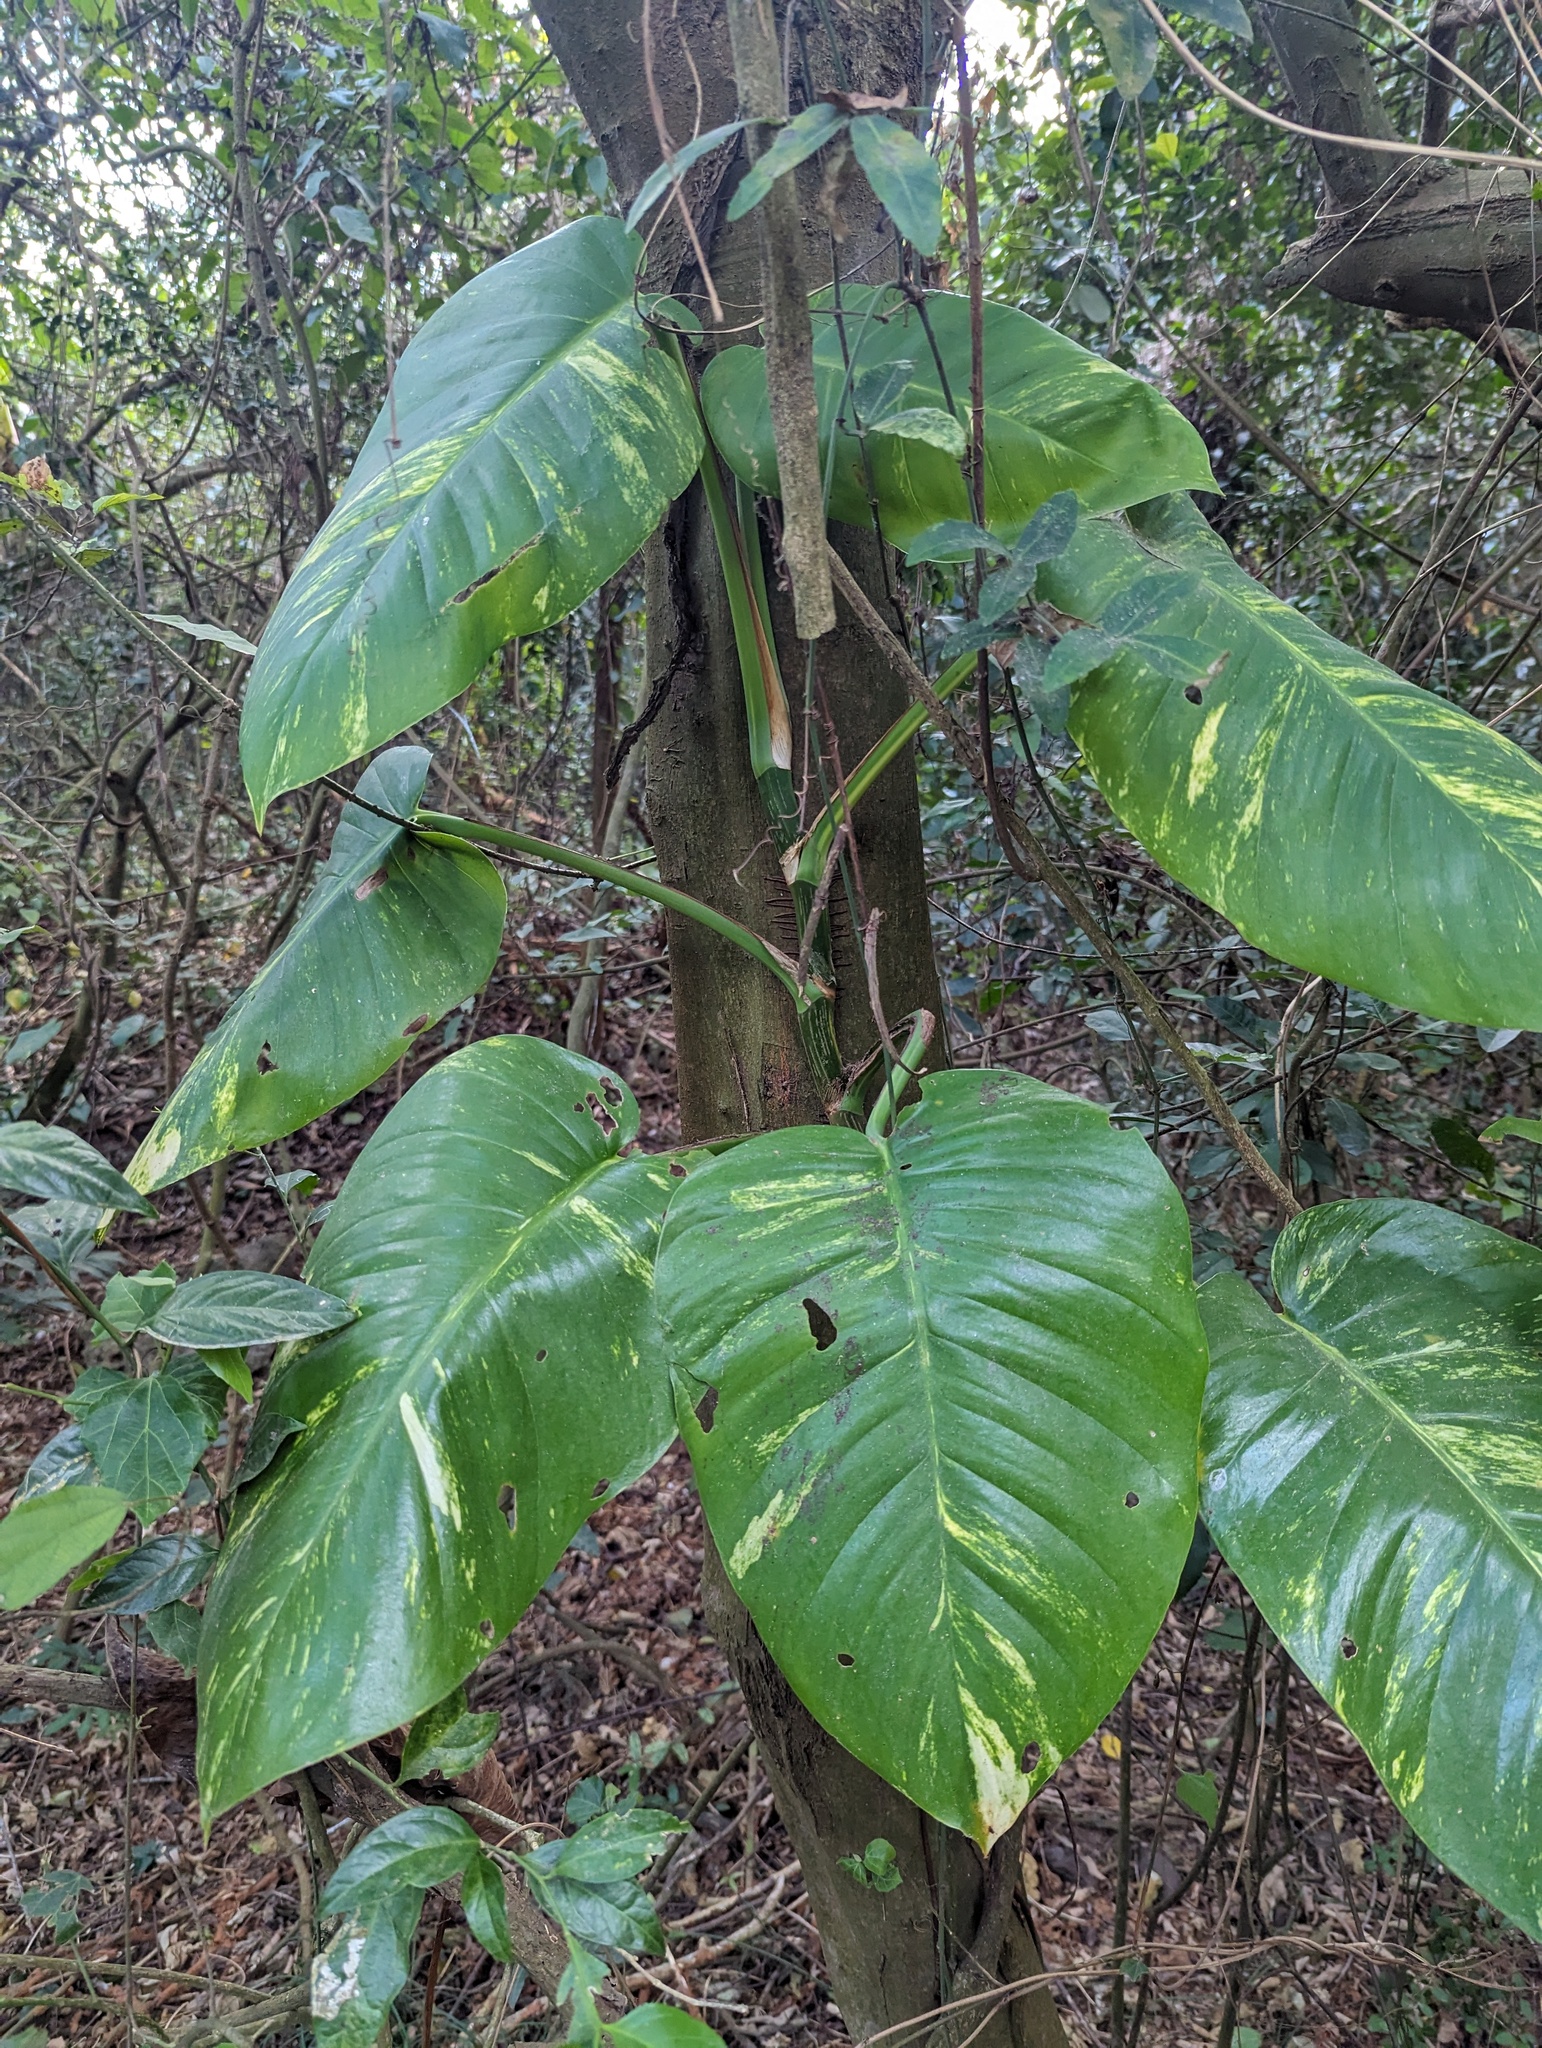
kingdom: Plantae
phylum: Tracheophyta
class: Liliopsida
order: Alismatales
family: Araceae
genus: Epipremnum
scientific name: Epipremnum aureum
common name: Golden hunter's-robe
